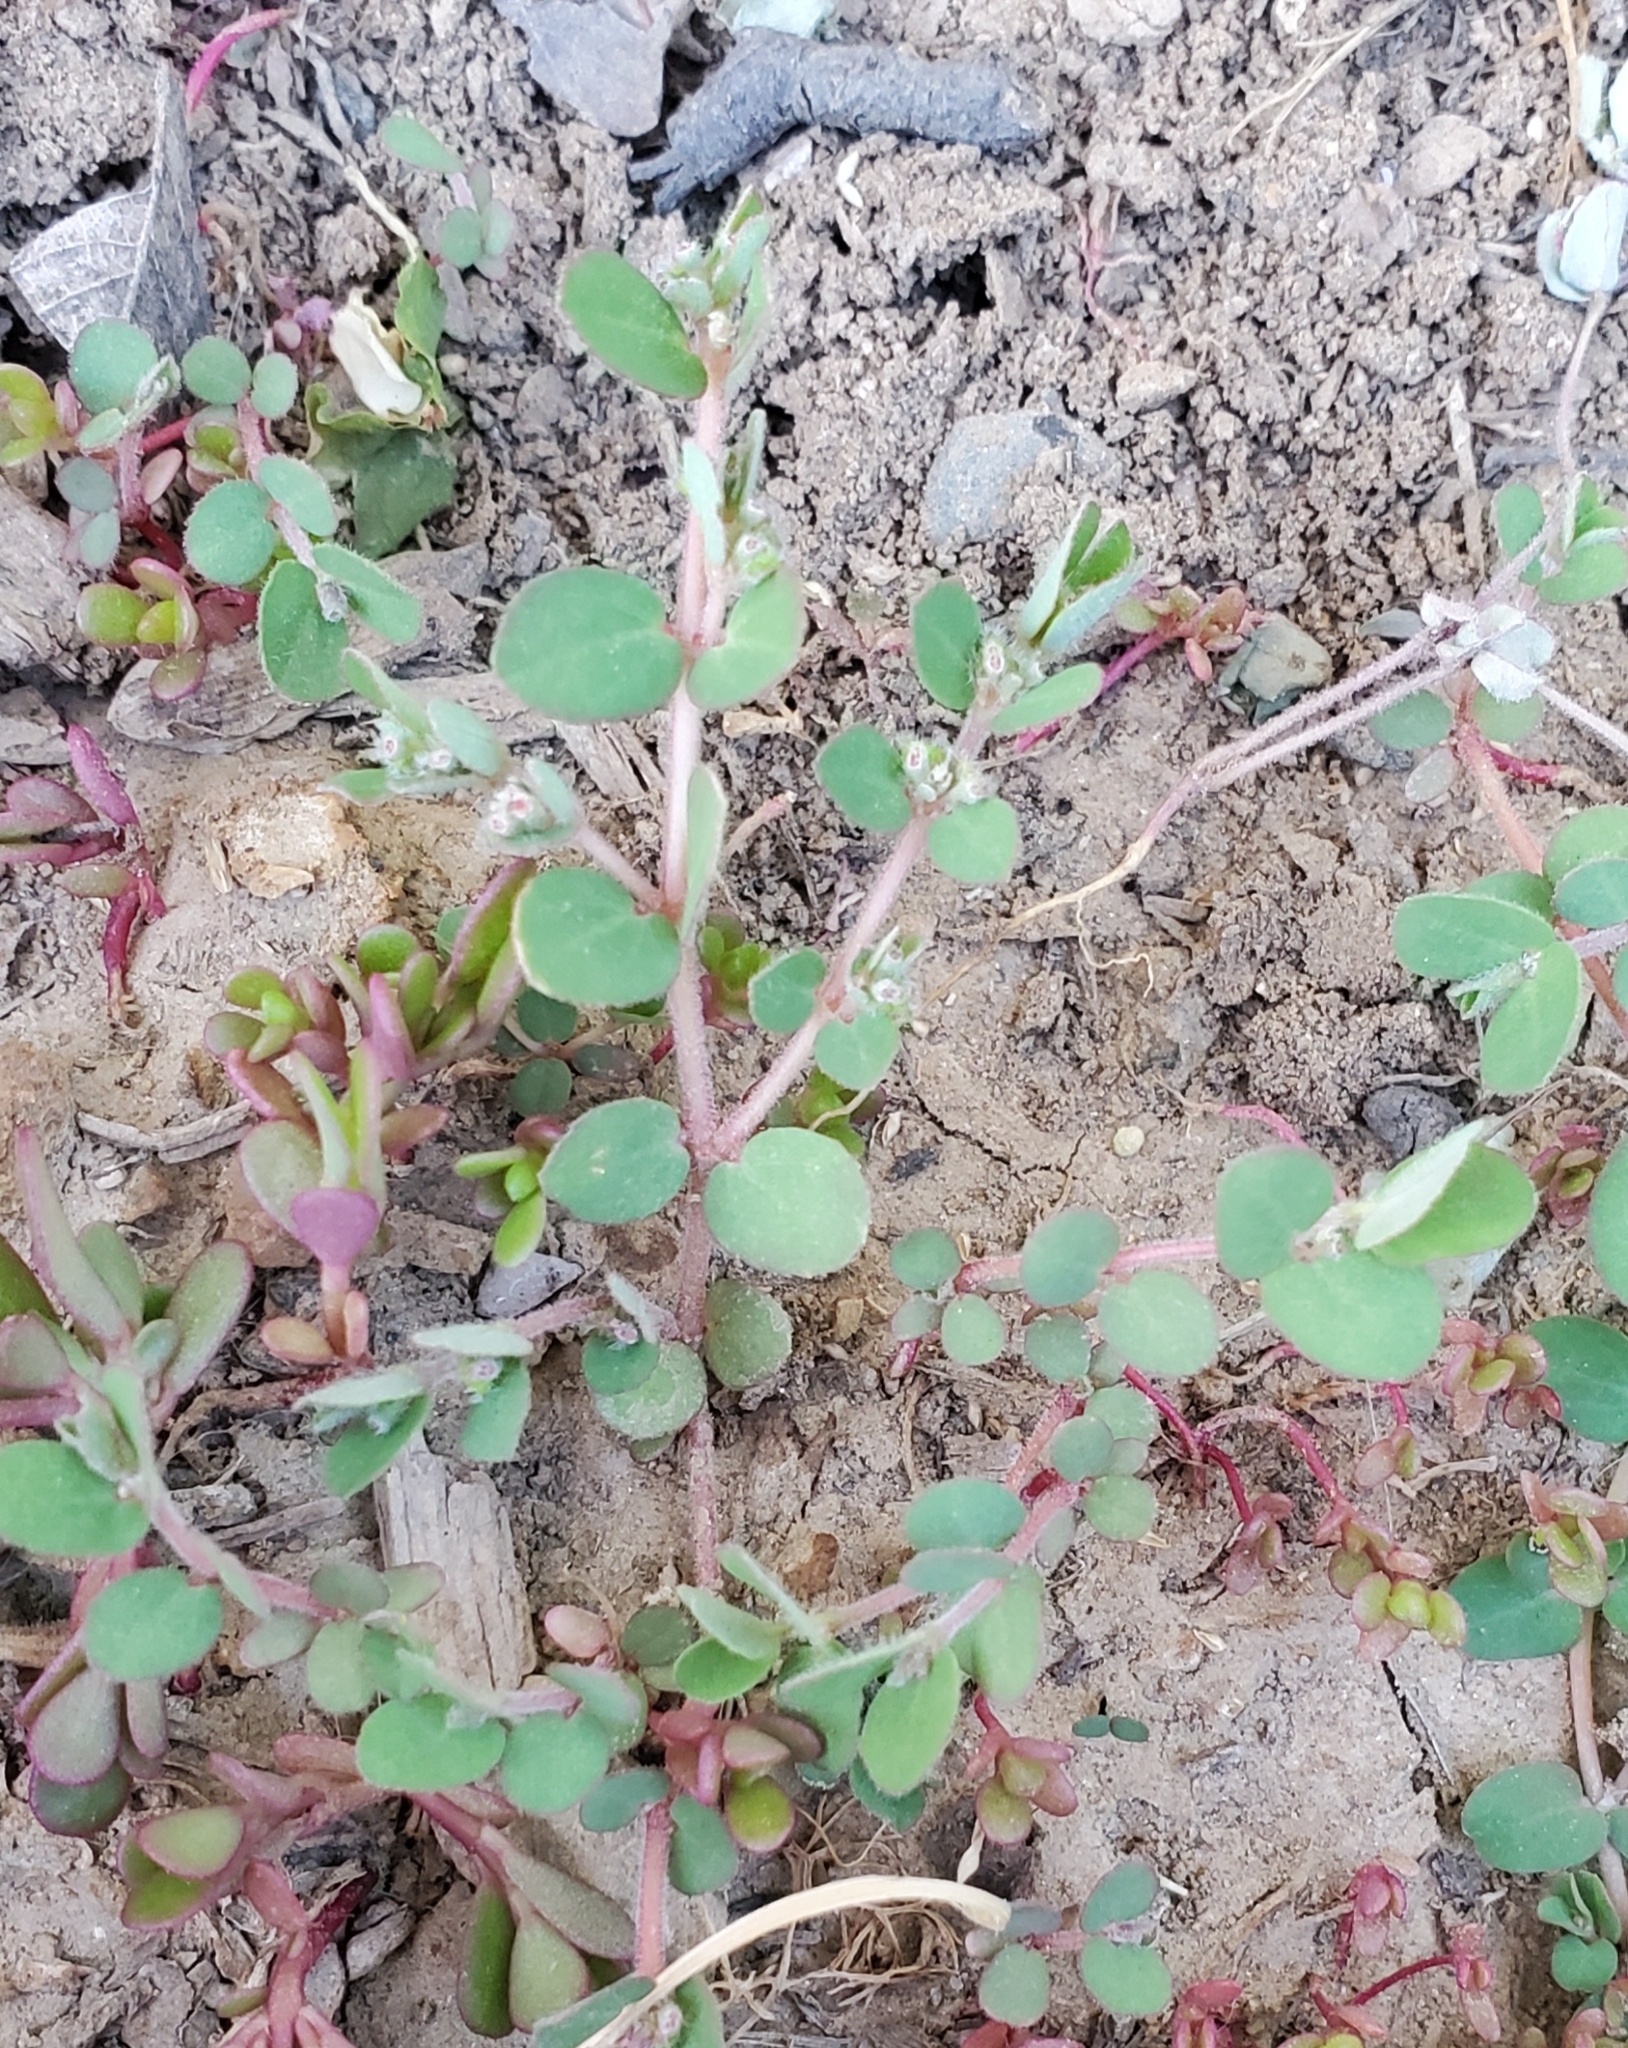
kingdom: Plantae
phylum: Tracheophyta
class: Magnoliopsida
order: Malpighiales
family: Euphorbiaceae
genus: Euphorbia
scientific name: Euphorbia prostrata
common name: Prostrate sandmat
